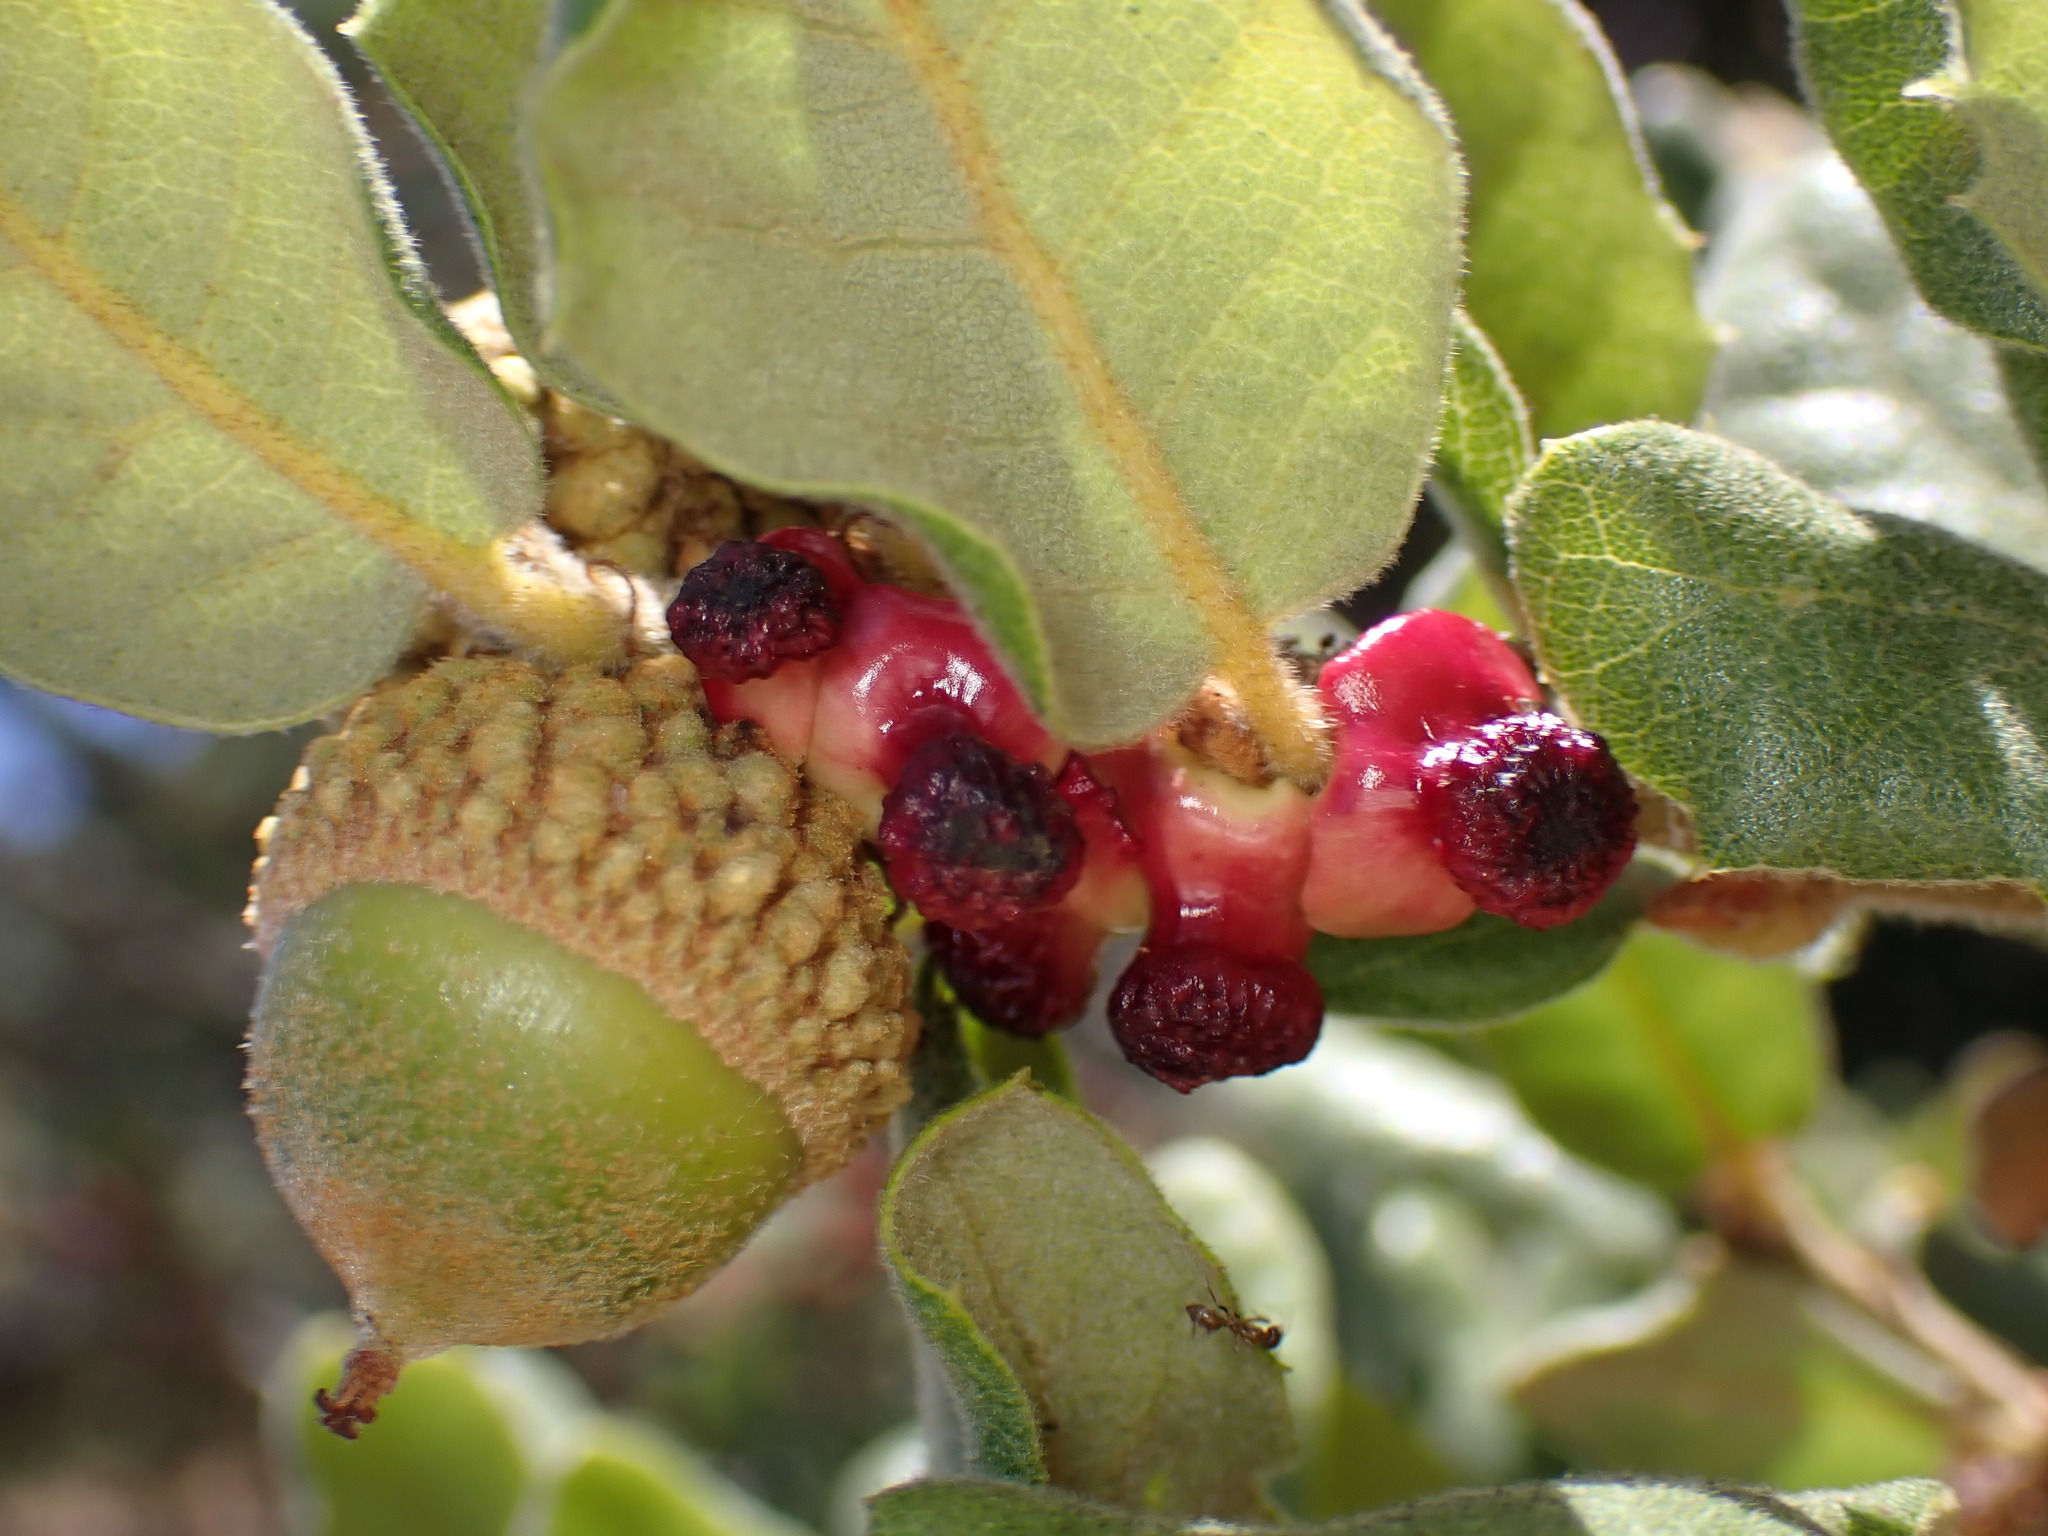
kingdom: Animalia
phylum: Arthropoda
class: Insecta
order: Hymenoptera
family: Cynipidae
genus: Disholcaspis
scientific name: Disholcaspis prehensa
